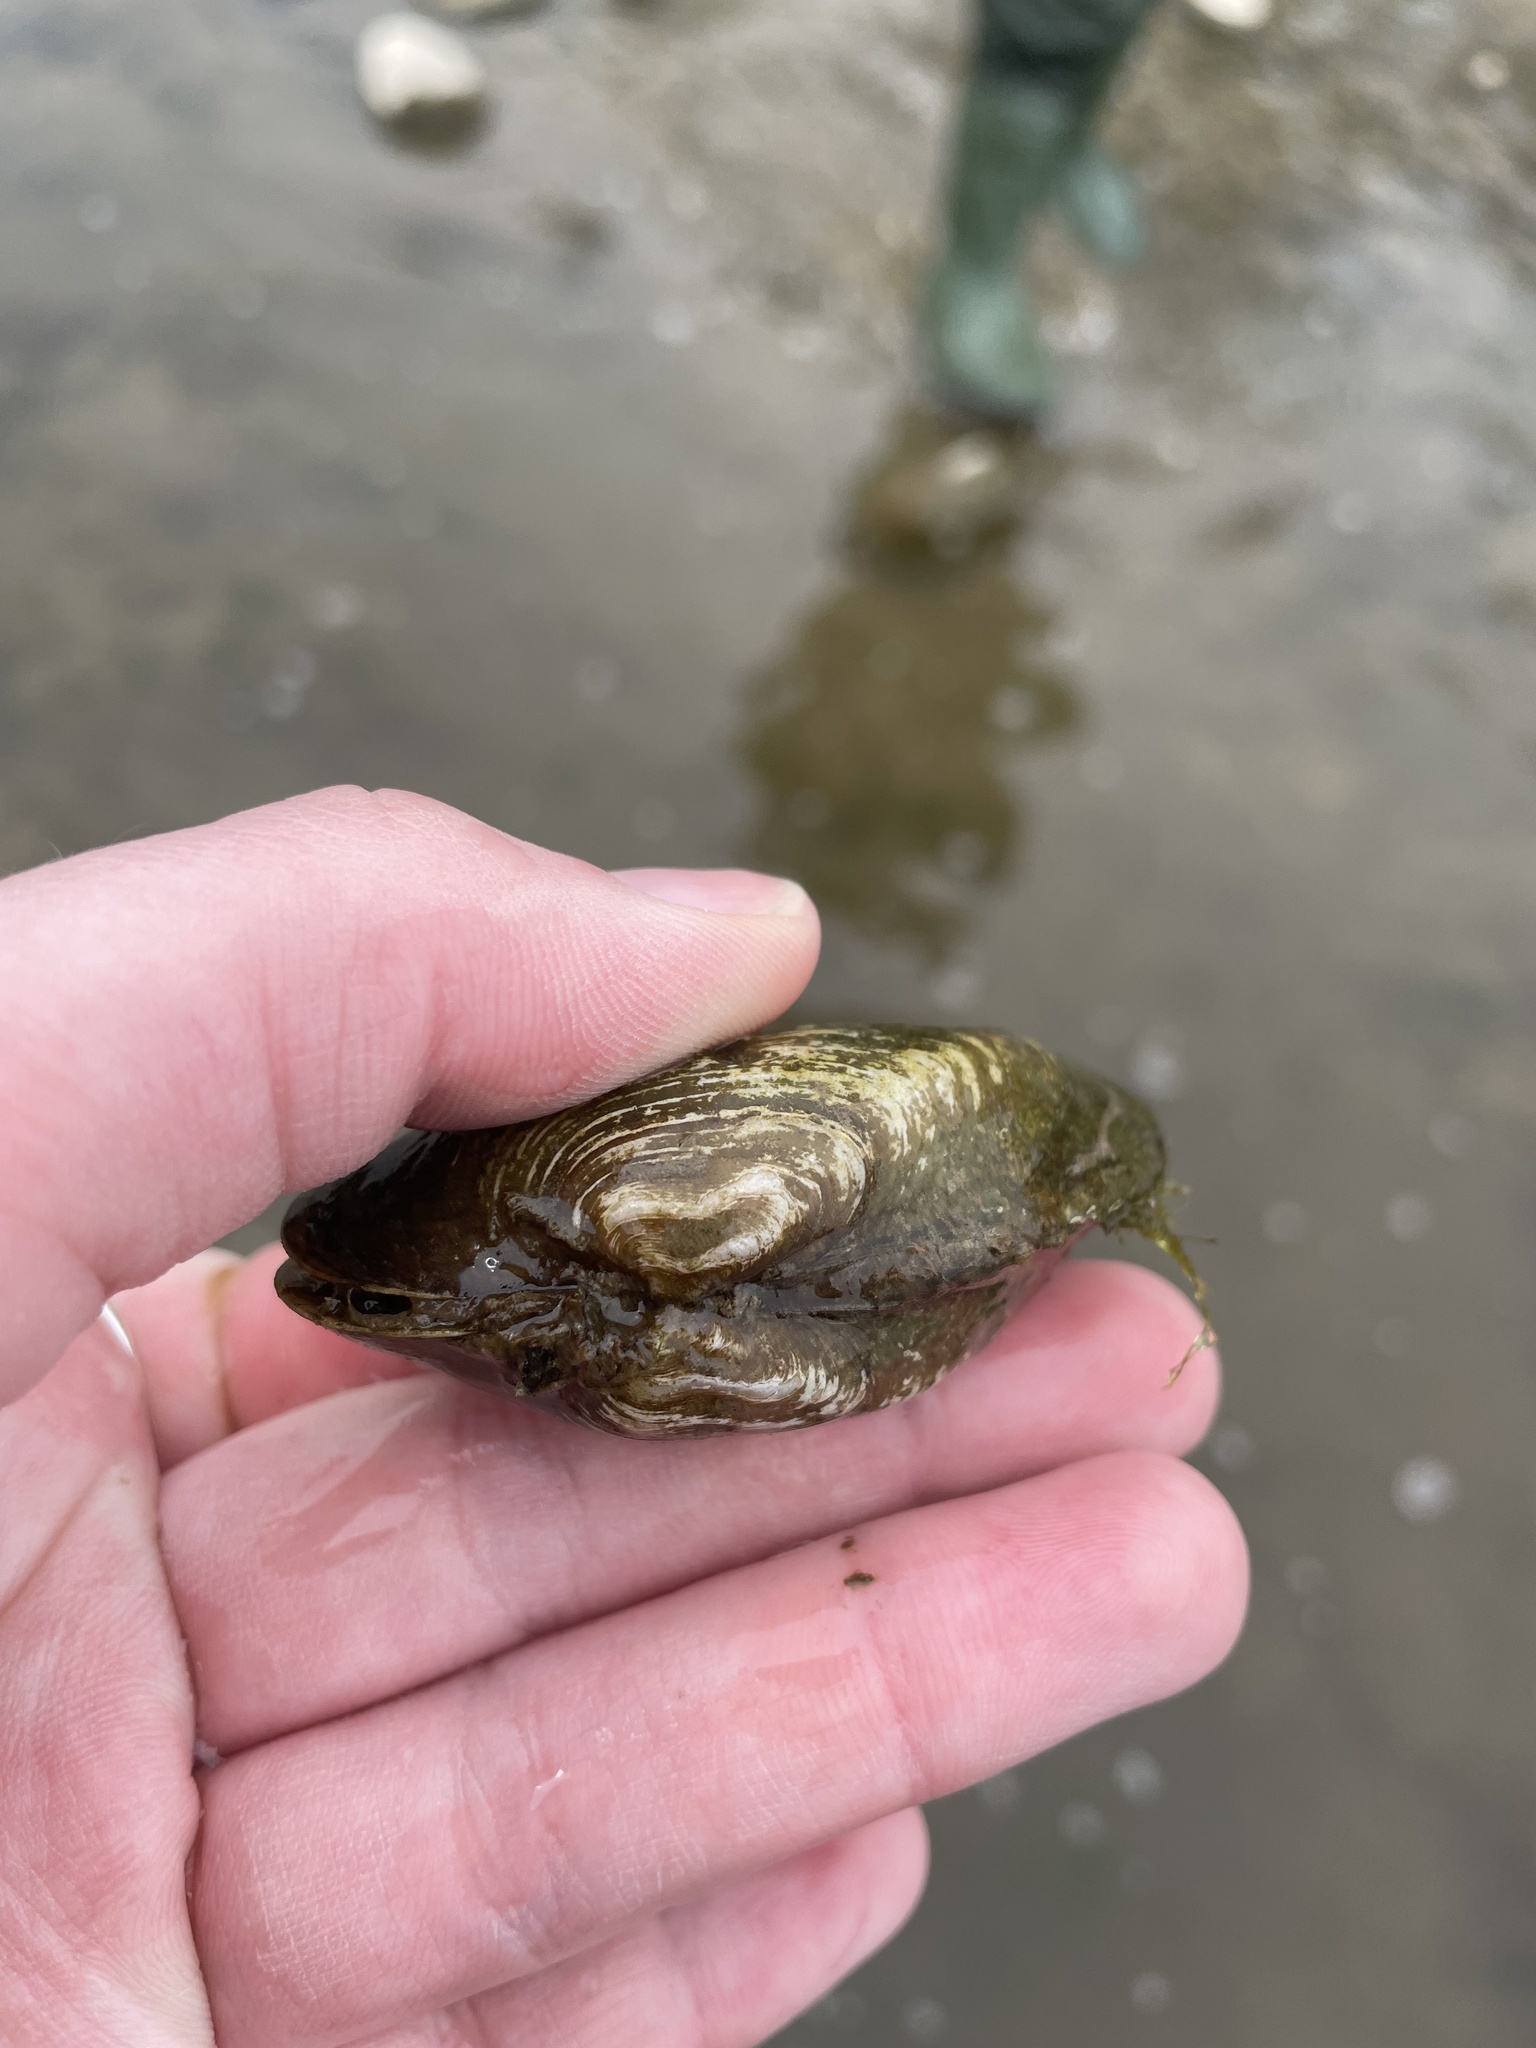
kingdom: Animalia
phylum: Mollusca
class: Bivalvia
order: Unionida
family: Unionidae
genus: Alasmidonta
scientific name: Alasmidonta marginata
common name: Elktoe
